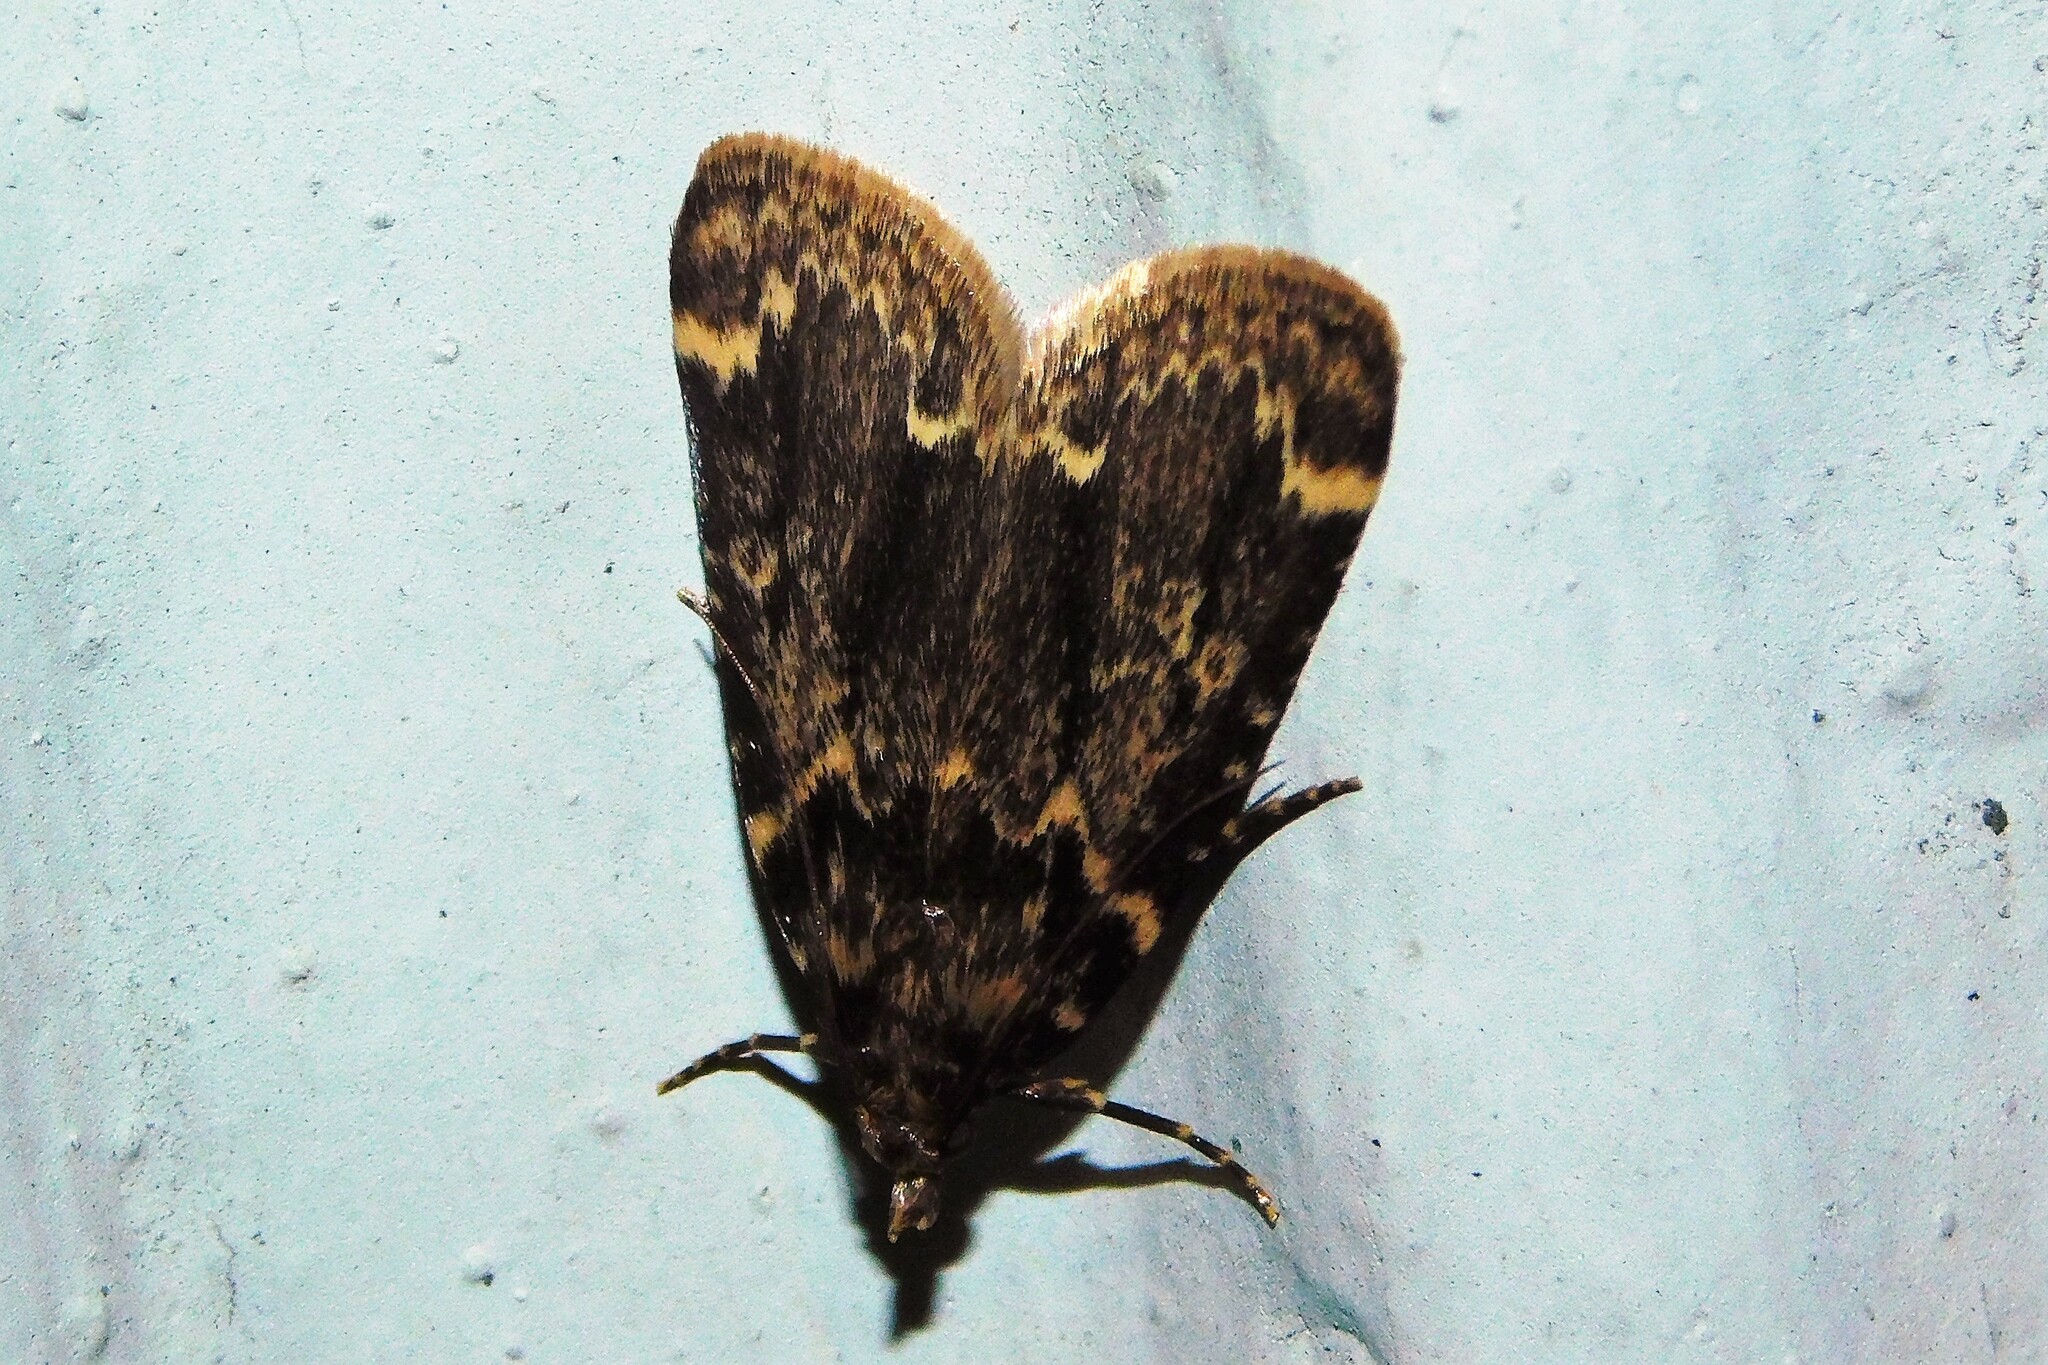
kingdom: Animalia
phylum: Arthropoda
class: Insecta
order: Lepidoptera
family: Pyralidae
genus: Aglossa
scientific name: Aglossa caprealis
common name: Small tabby
